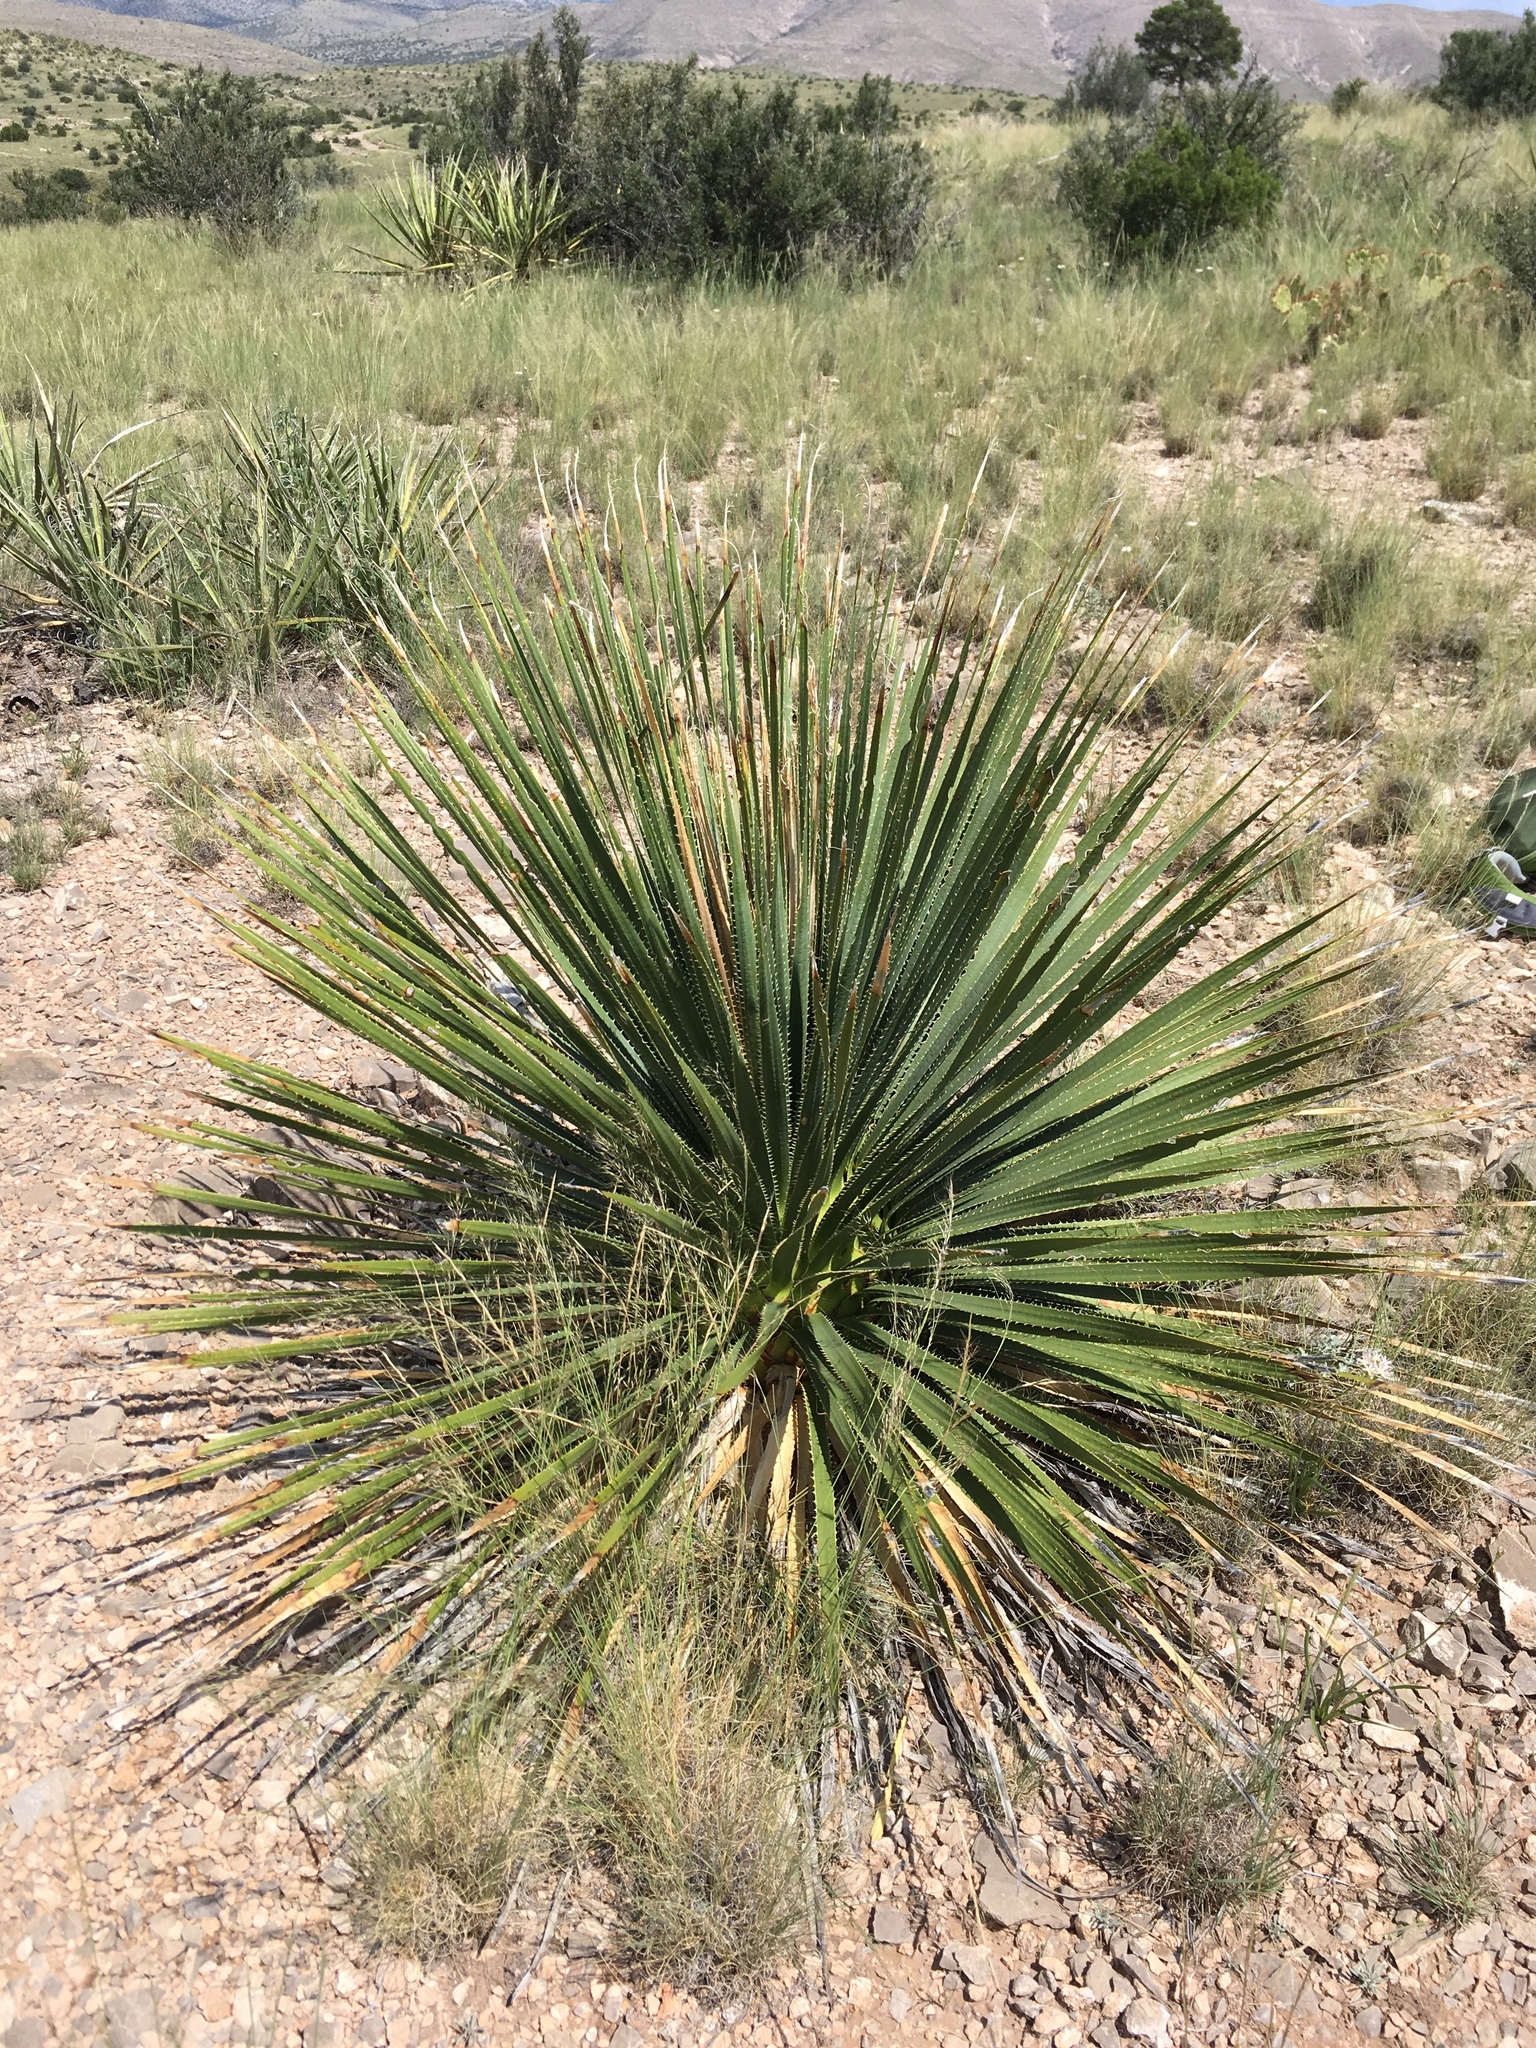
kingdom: Plantae
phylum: Tracheophyta
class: Liliopsida
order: Asparagales
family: Asparagaceae
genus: Dasylirion
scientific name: Dasylirion wheeleri
